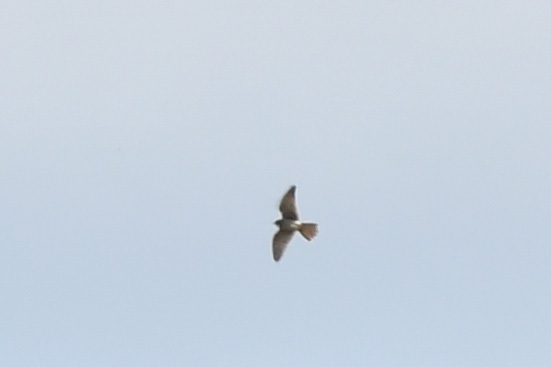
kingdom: Animalia
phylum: Chordata
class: Aves
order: Falconiformes
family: Falconidae
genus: Falco
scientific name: Falco sparverius
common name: American kestrel
